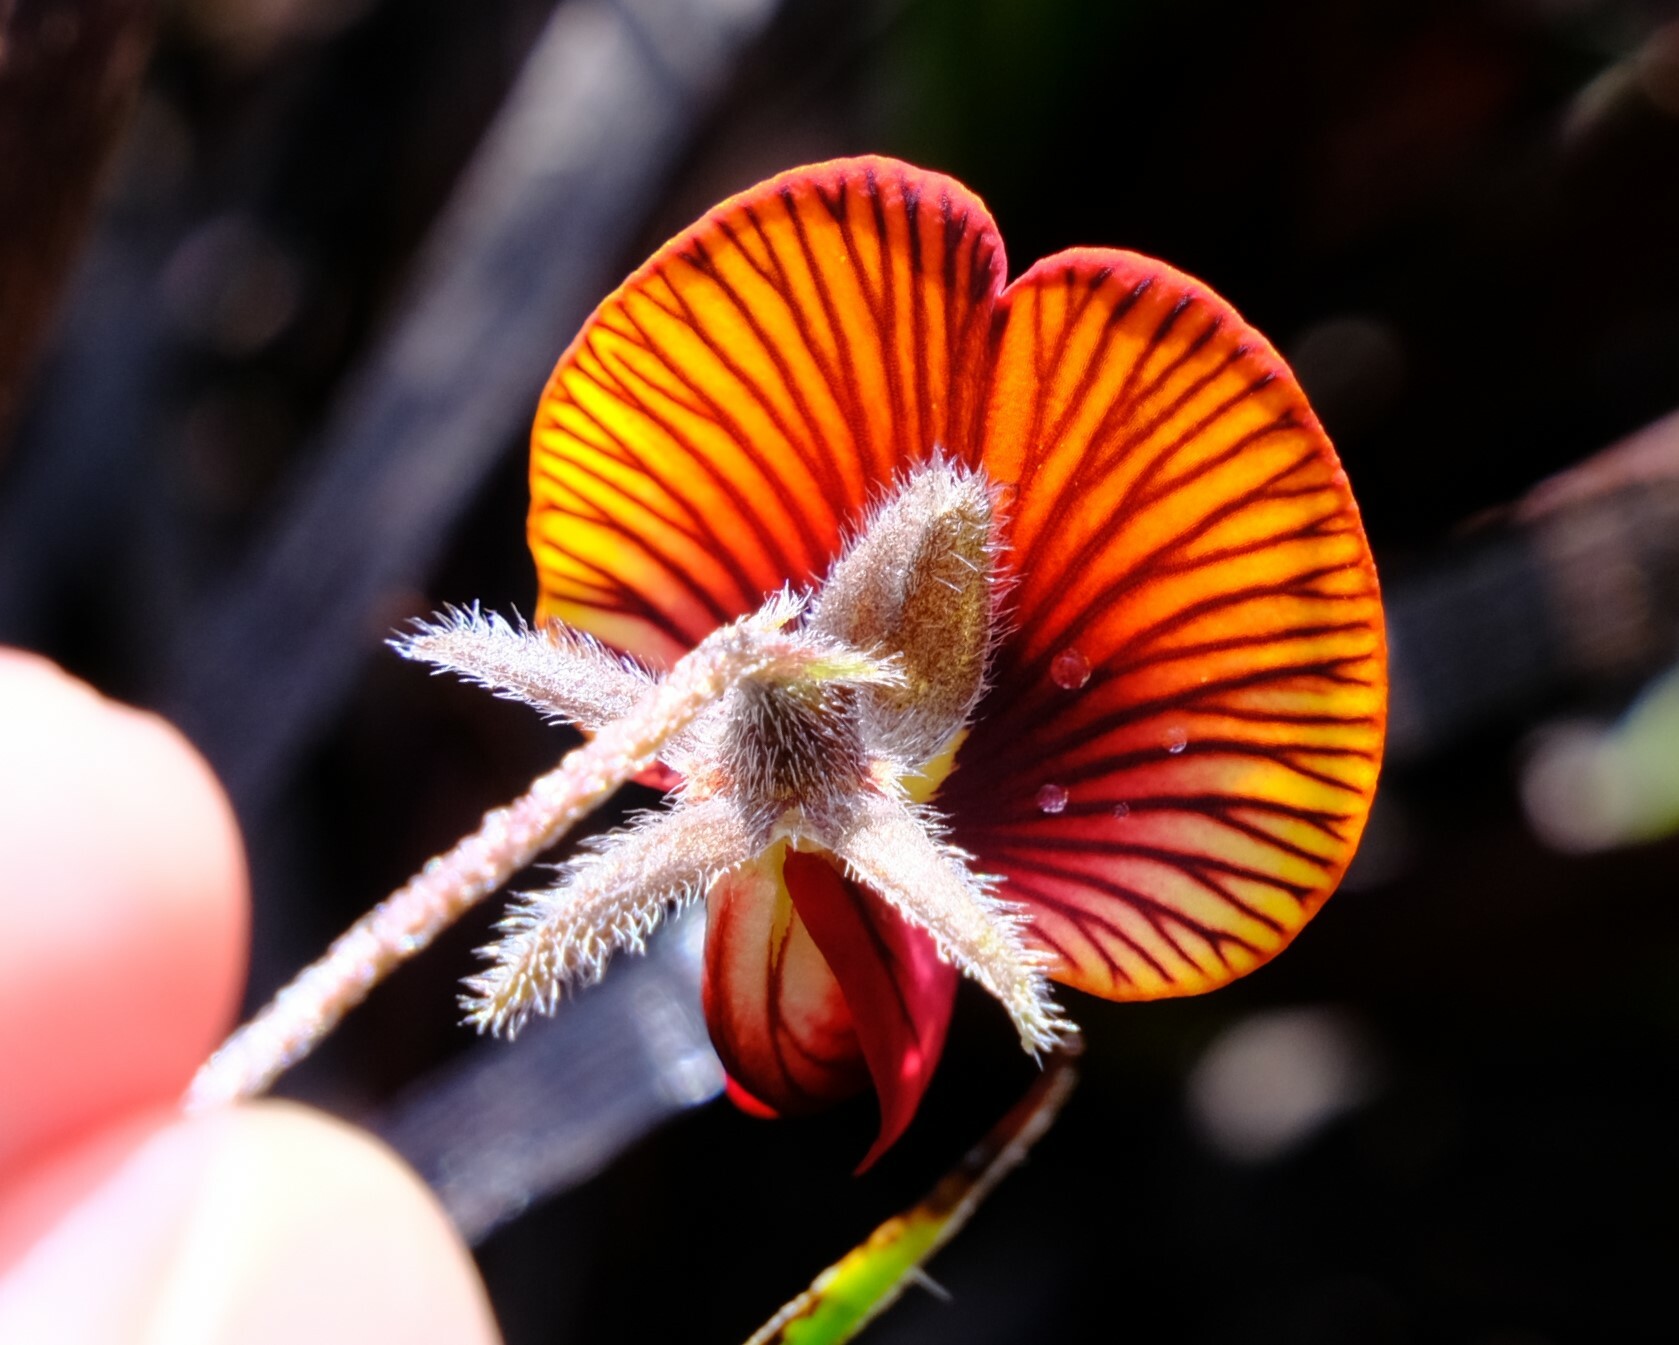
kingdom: Plantae
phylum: Tracheophyta
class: Magnoliopsida
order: Fabales
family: Fabaceae
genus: Isotropis
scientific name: Isotropis cuneifolia
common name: Granny bonnets
